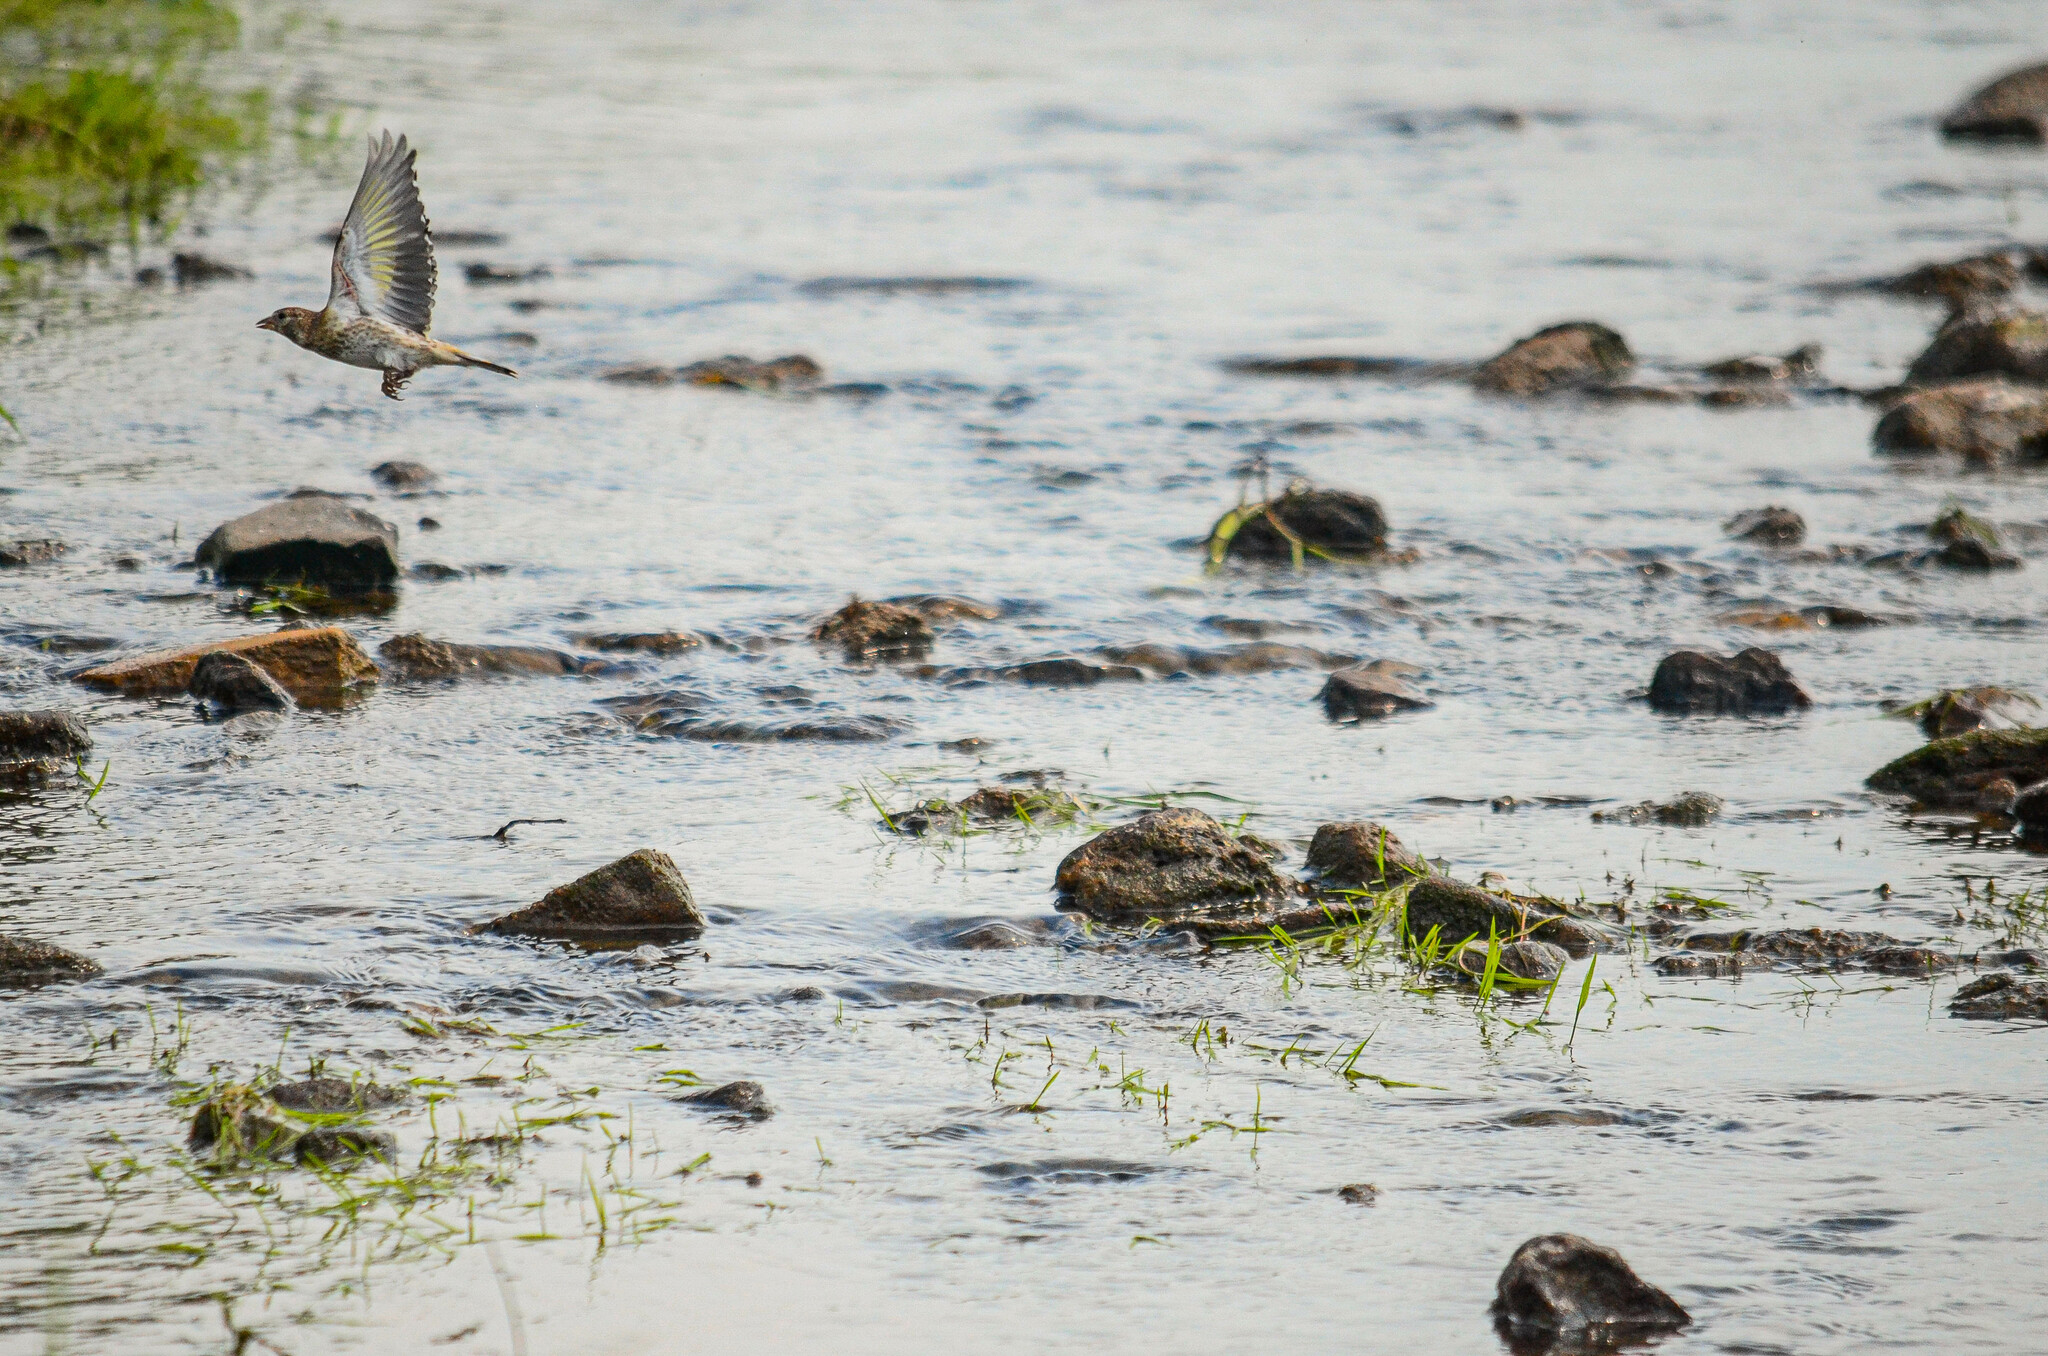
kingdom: Animalia
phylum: Chordata
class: Aves
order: Passeriformes
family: Fringillidae
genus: Carduelis
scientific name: Carduelis carduelis
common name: European goldfinch
